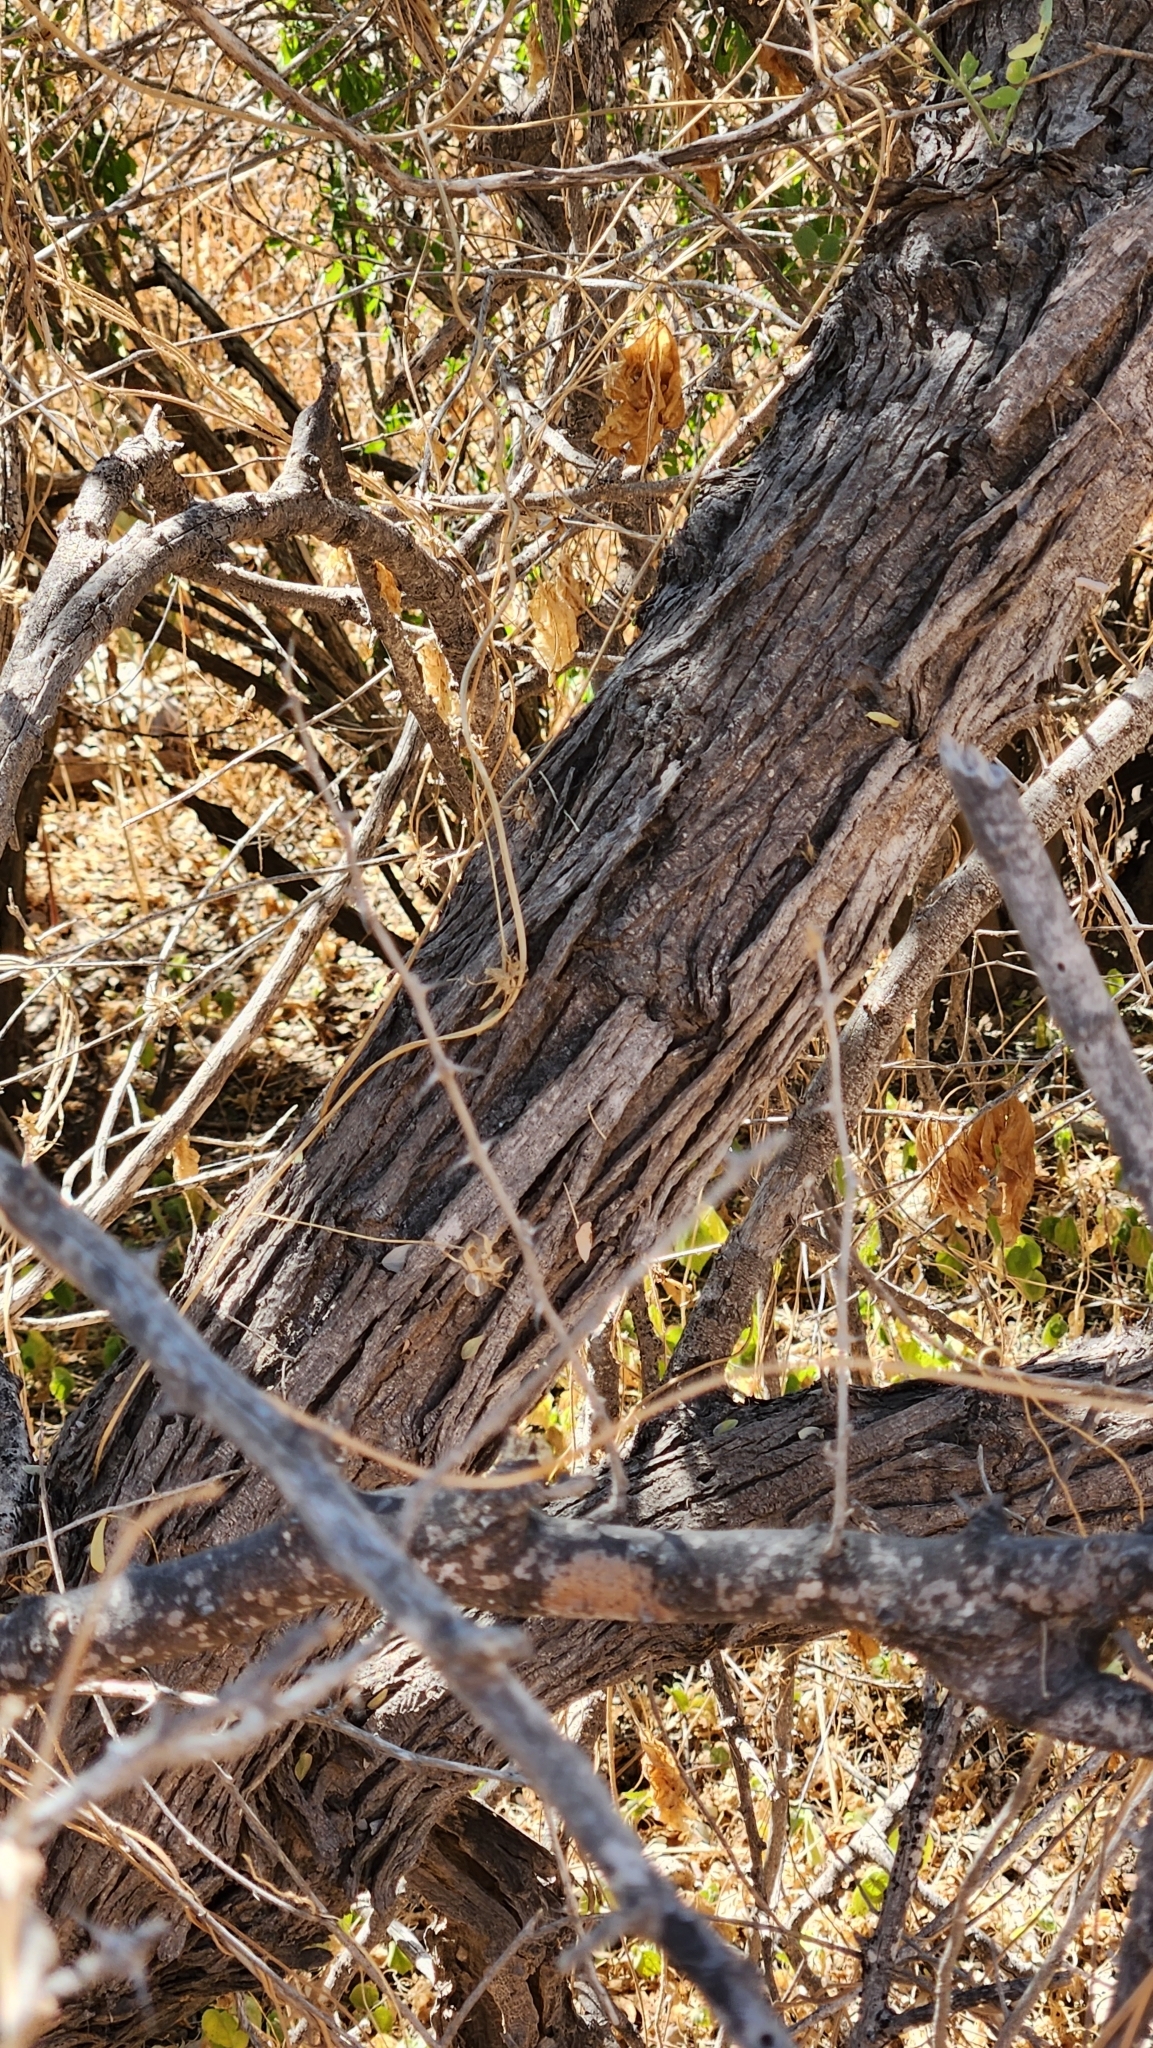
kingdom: Plantae
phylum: Tracheophyta
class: Magnoliopsida
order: Fabales
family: Fabaceae
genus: Olneya
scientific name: Olneya tesota
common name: Desert ironwood
